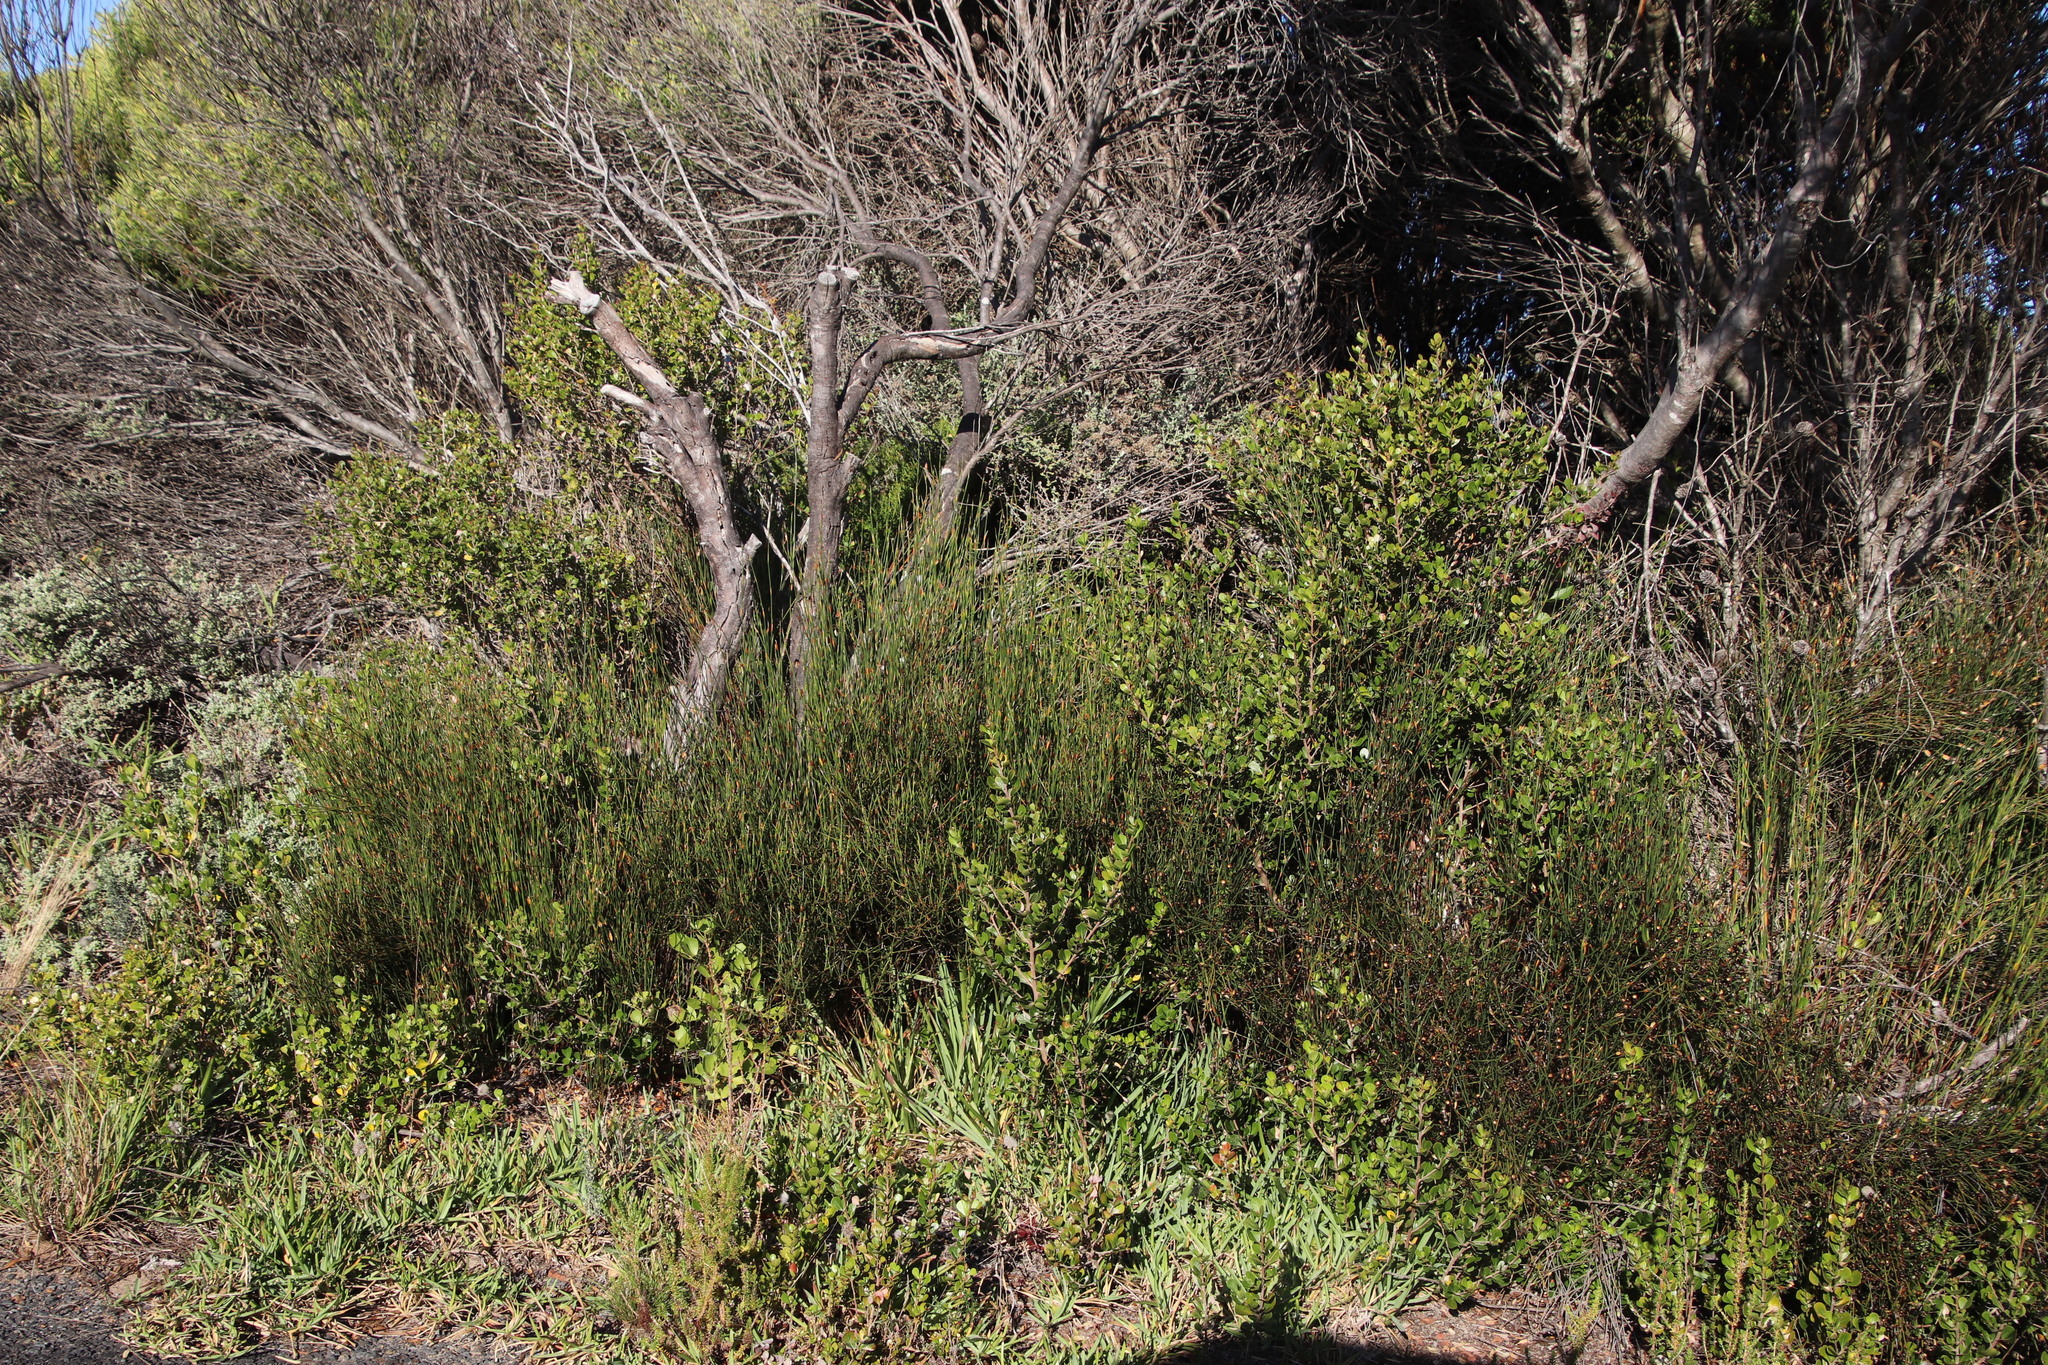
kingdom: Plantae
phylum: Tracheophyta
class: Liliopsida
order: Poales
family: Restionaceae
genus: Willdenowia
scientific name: Willdenowia teres
